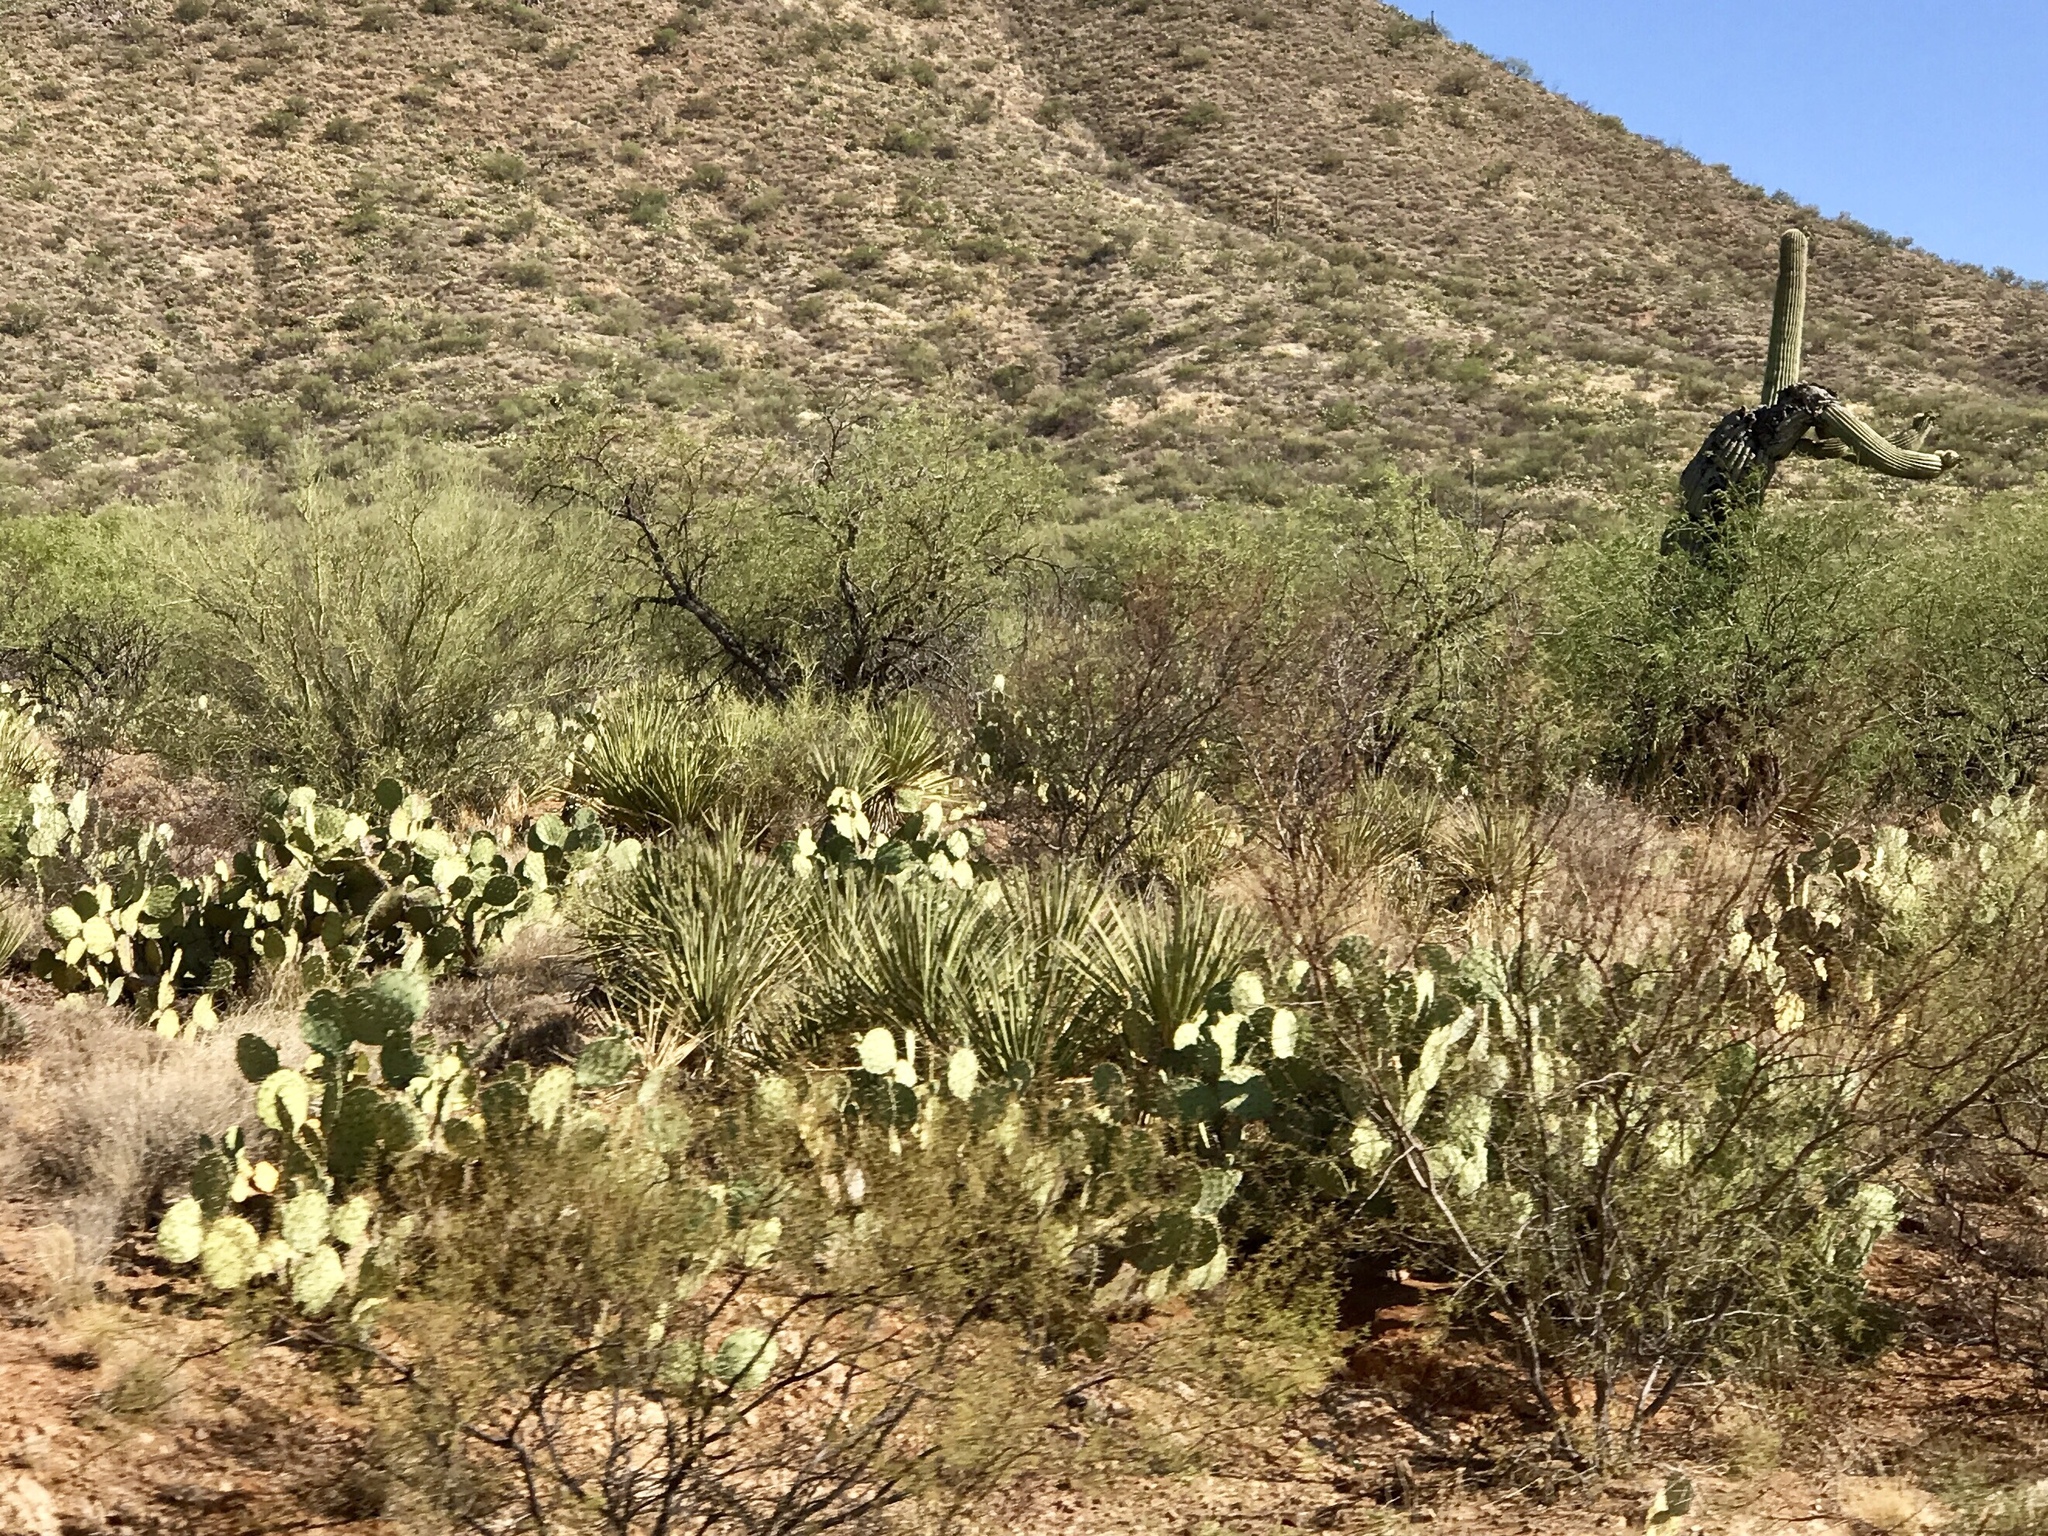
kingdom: Plantae
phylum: Tracheophyta
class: Magnoliopsida
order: Caryophyllales
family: Cactaceae
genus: Opuntia
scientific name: Opuntia engelmannii
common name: Cactus-apple
